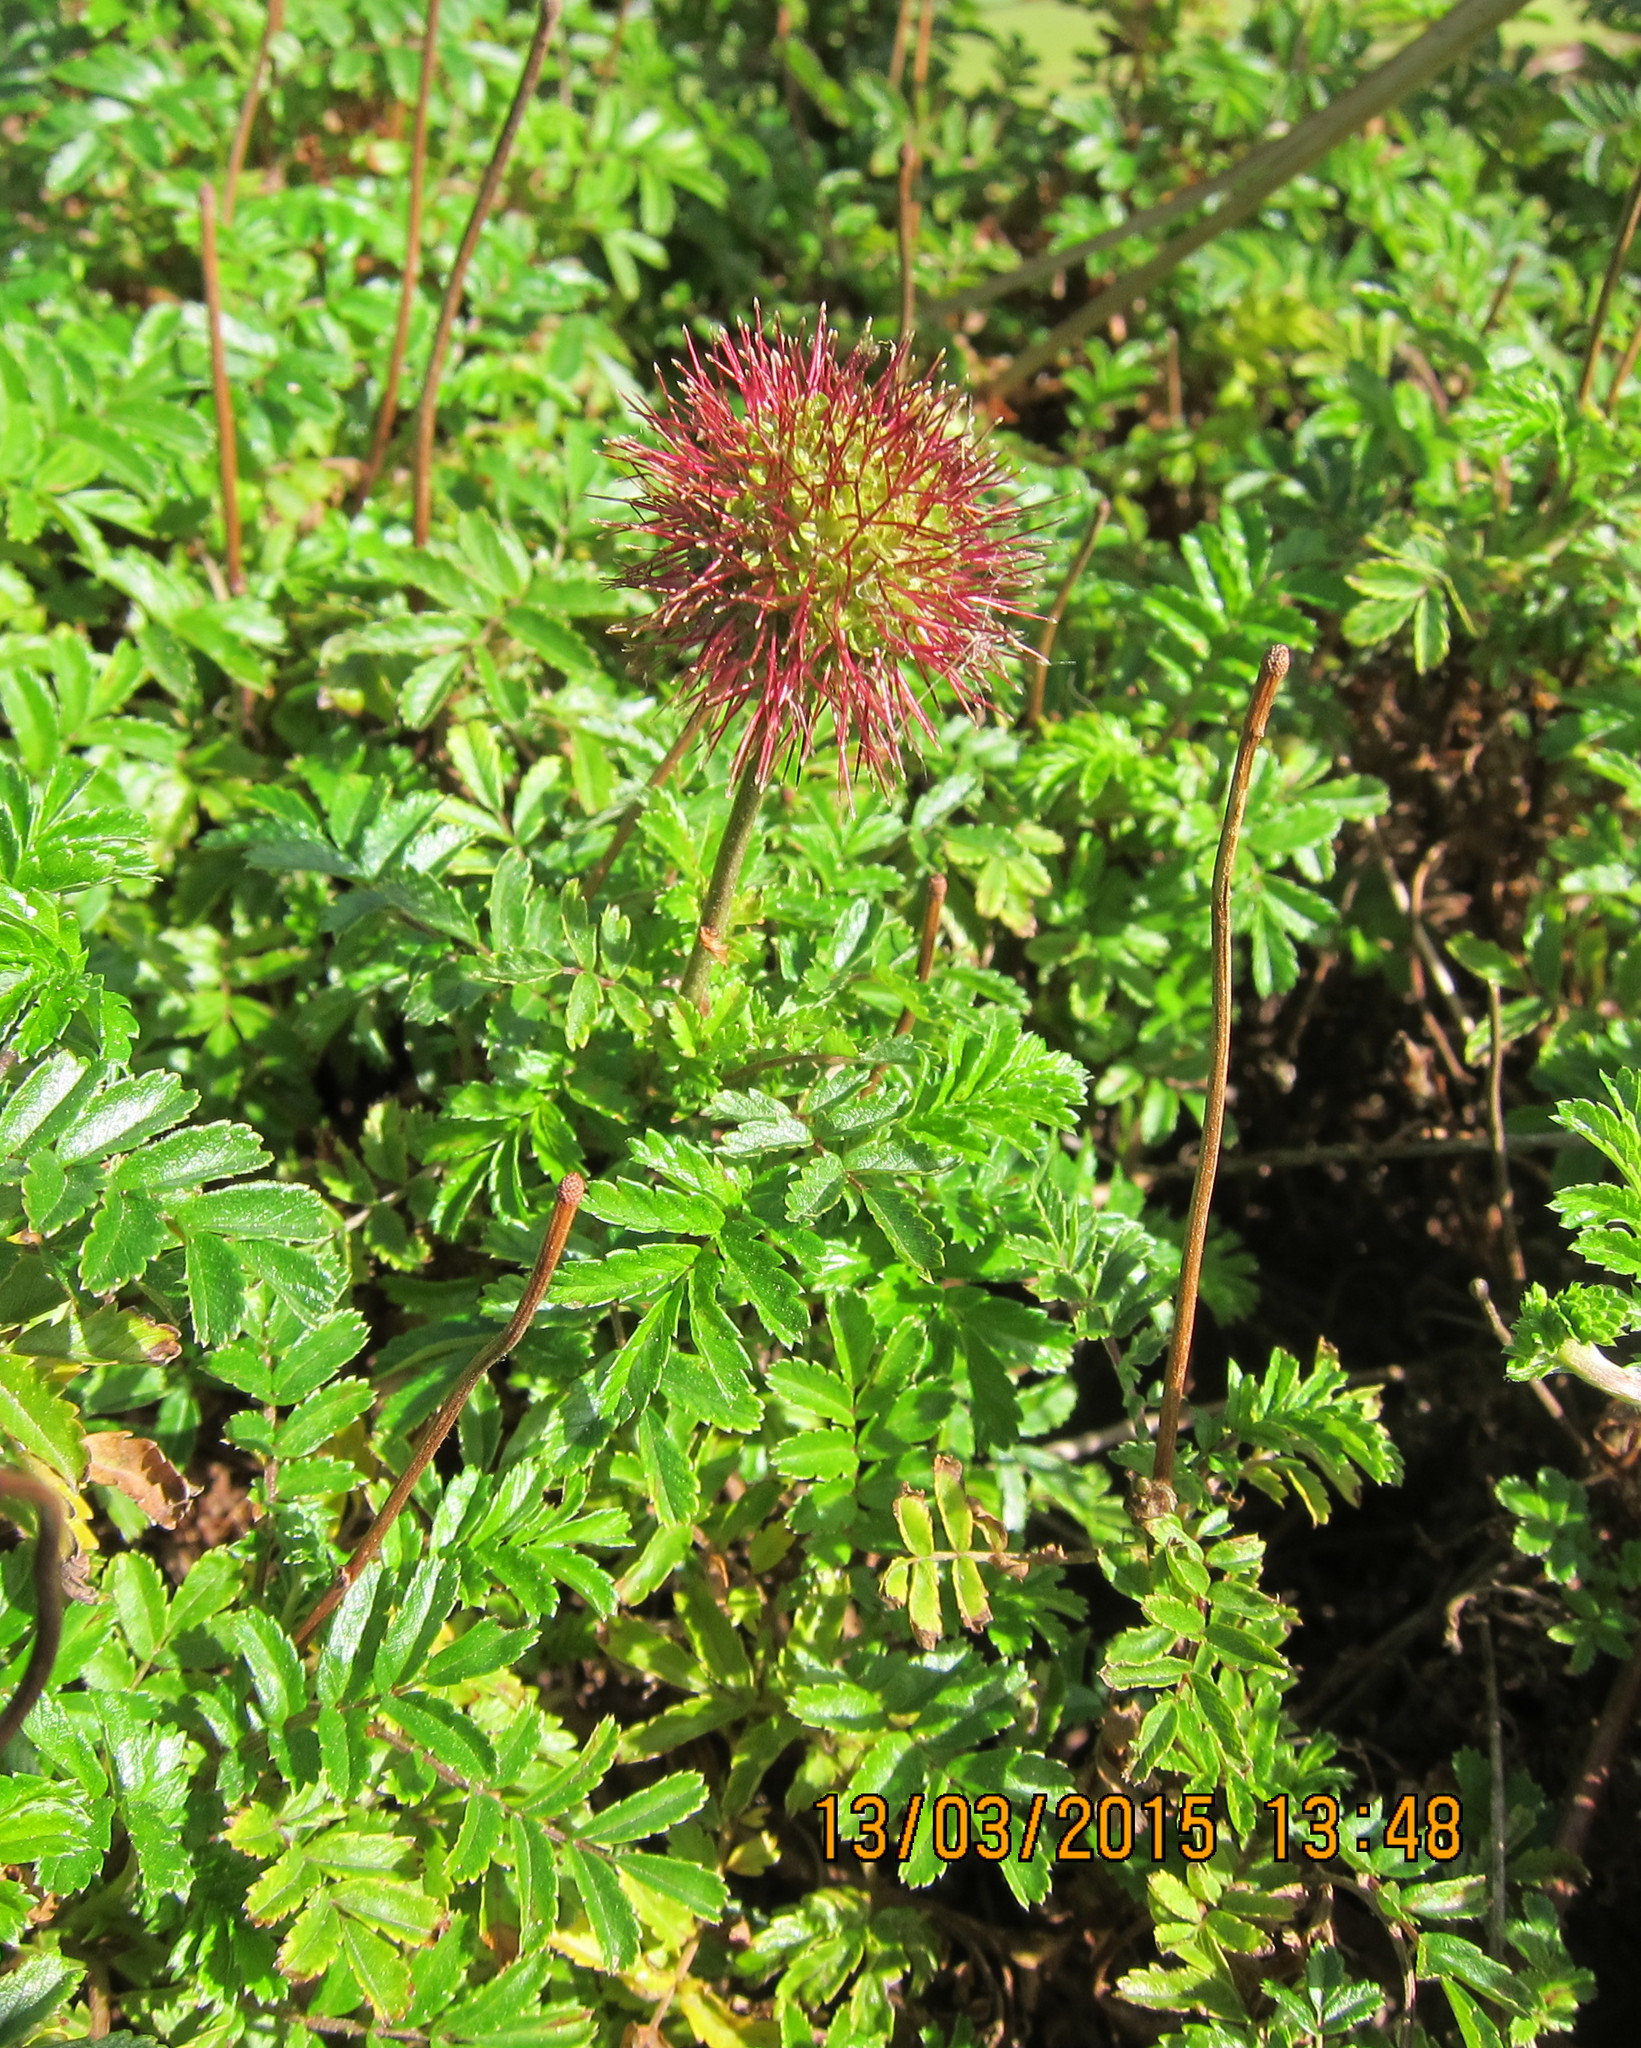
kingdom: Plantae
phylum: Tracheophyta
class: Magnoliopsida
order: Rosales
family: Rosaceae
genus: Acaena
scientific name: Acaena novae-zelandiae
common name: Pirri-pirri-bur
